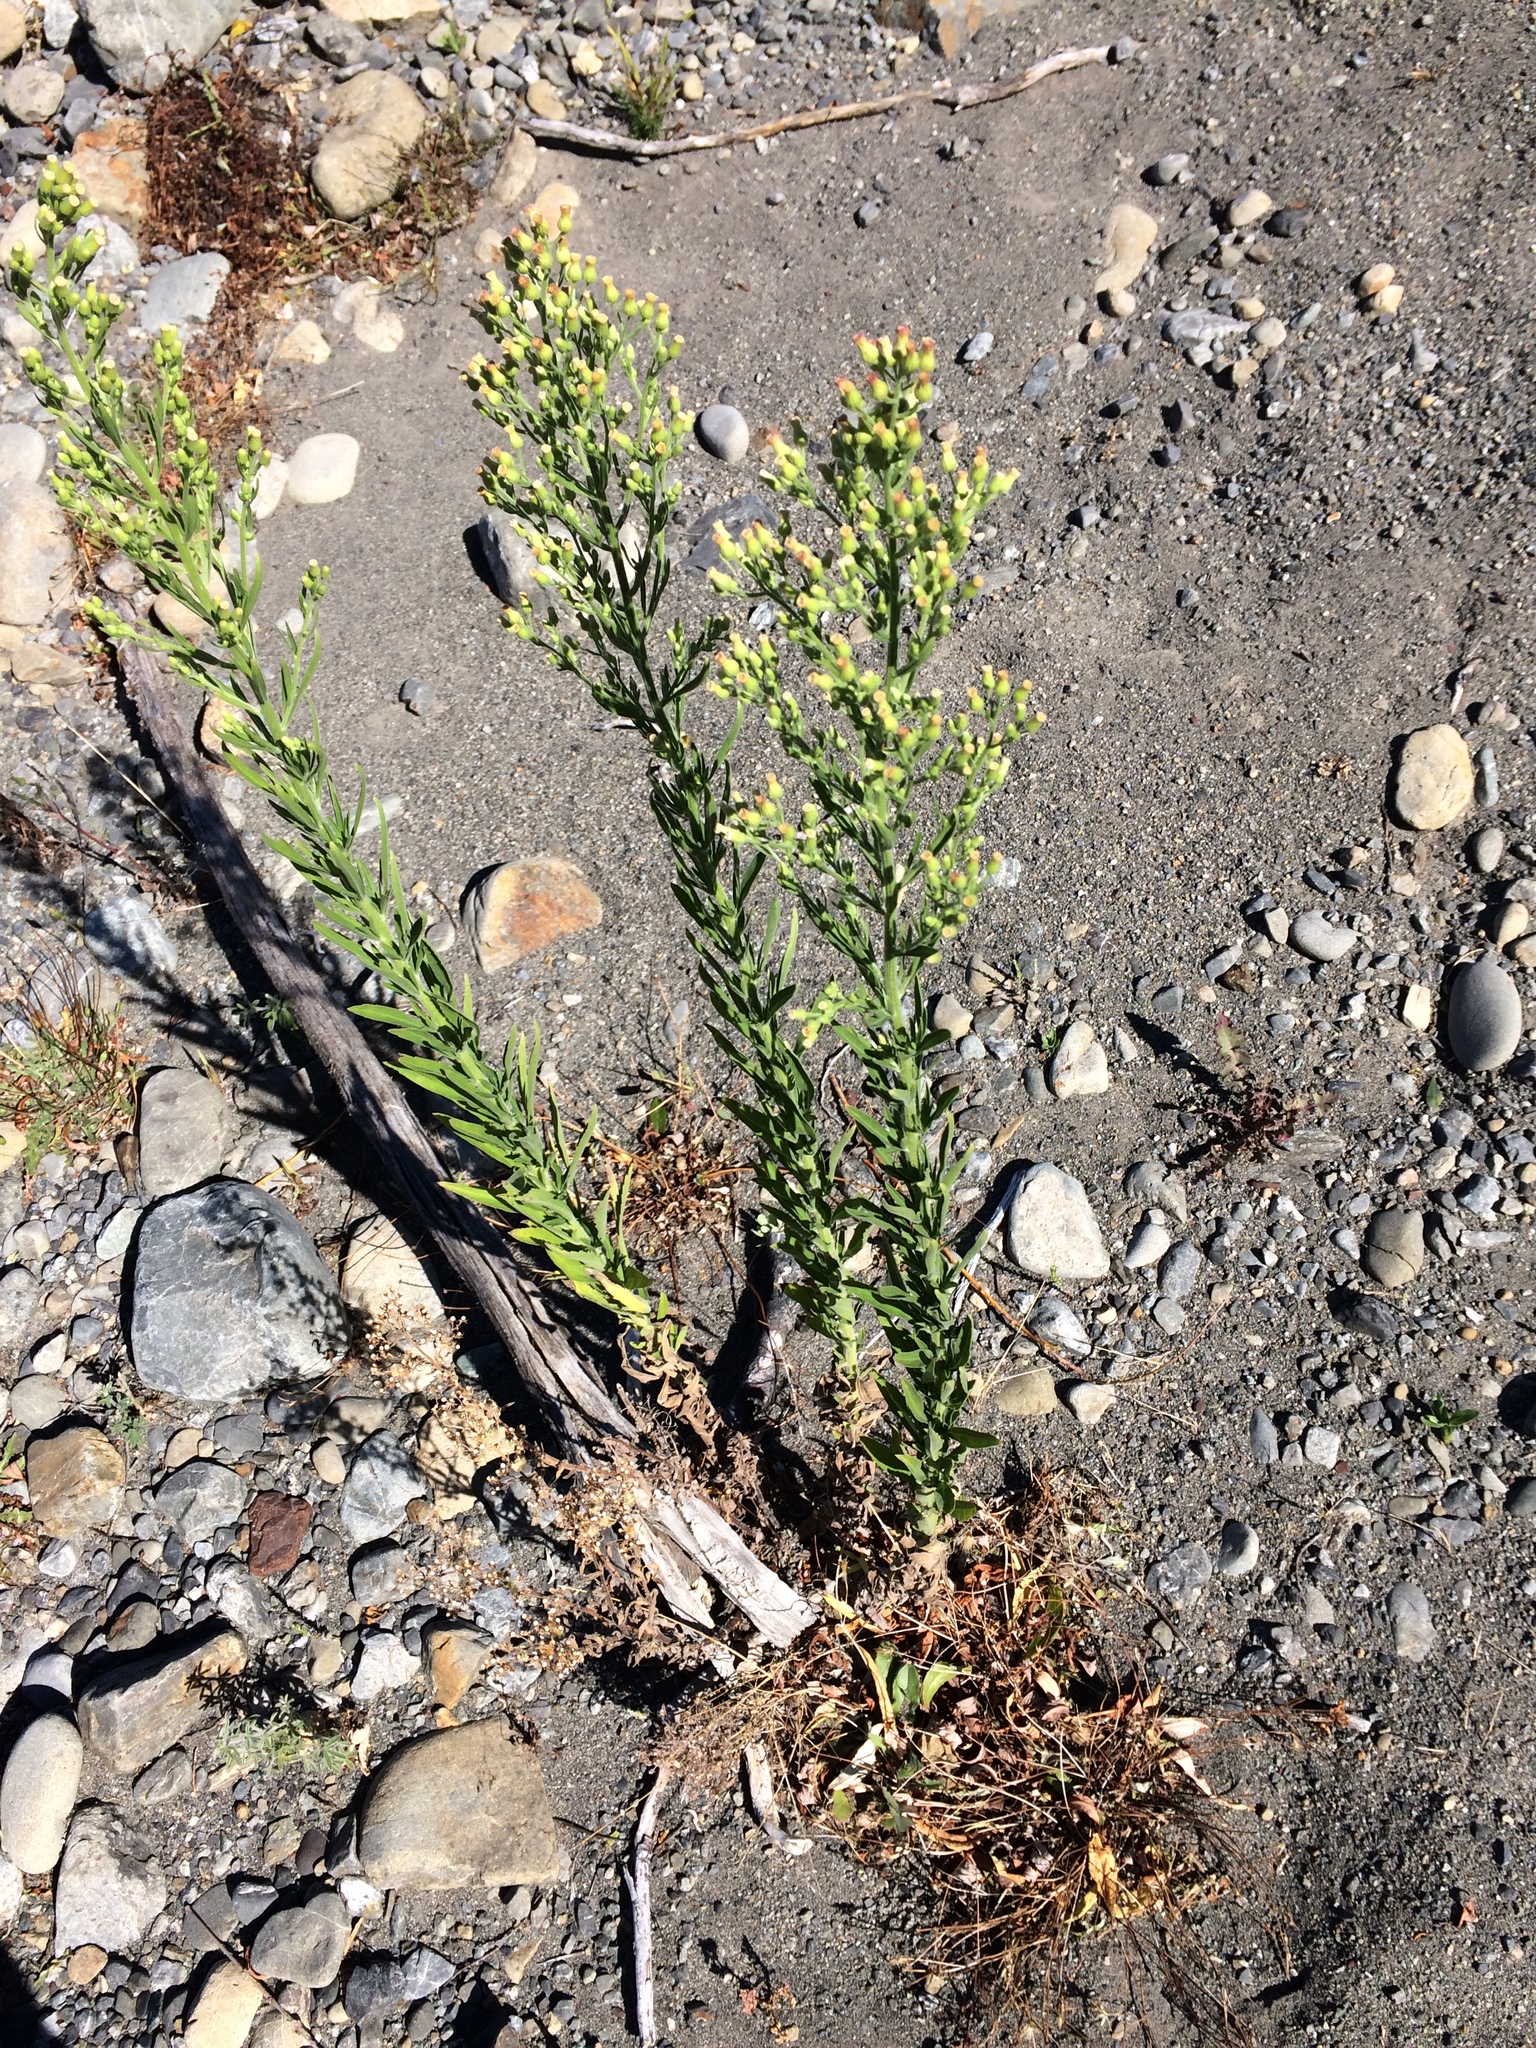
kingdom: Plantae
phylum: Tracheophyta
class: Magnoliopsida
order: Asterales
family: Asteraceae
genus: Erigeron
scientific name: Erigeron sumatrensis
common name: Daisy
